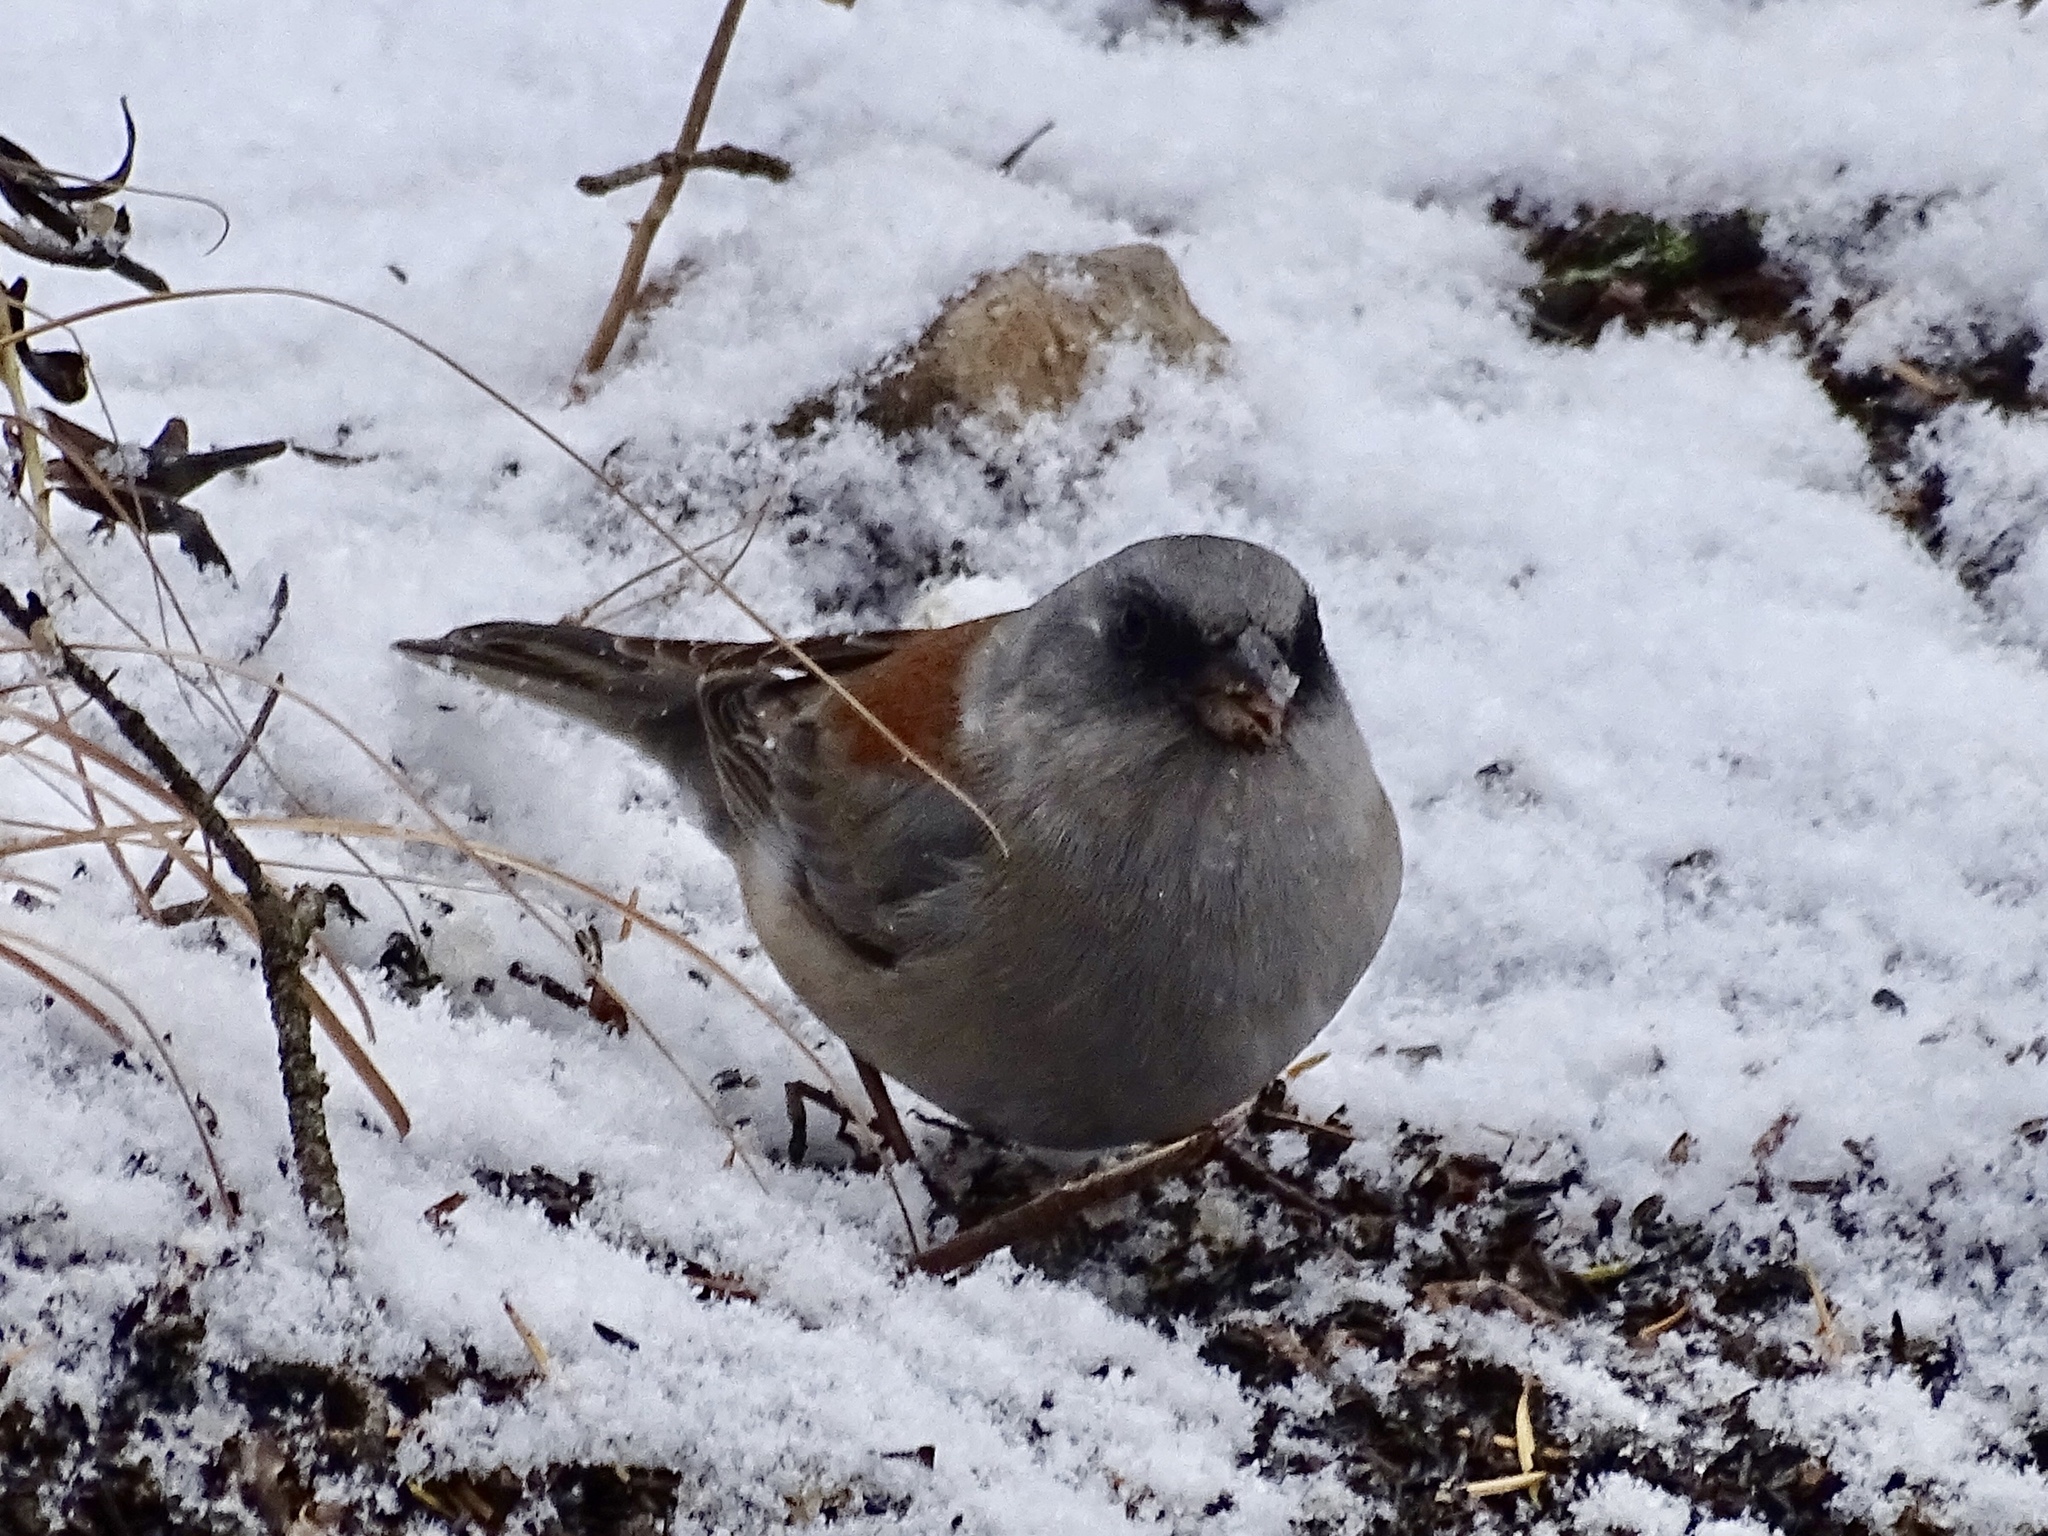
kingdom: Animalia
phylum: Chordata
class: Aves
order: Passeriformes
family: Passerellidae
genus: Junco
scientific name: Junco hyemalis
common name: Dark-eyed junco
